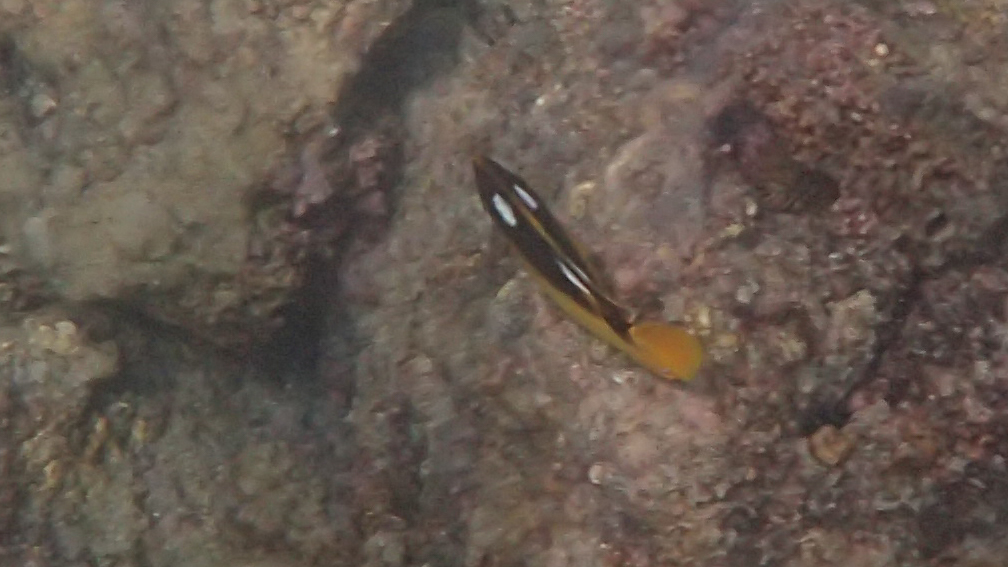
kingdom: Animalia
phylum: Chordata
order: Perciformes
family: Chaetodontidae
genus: Chaetodon
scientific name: Chaetodon quadrimaculatus
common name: Fourspot butterflyfish
